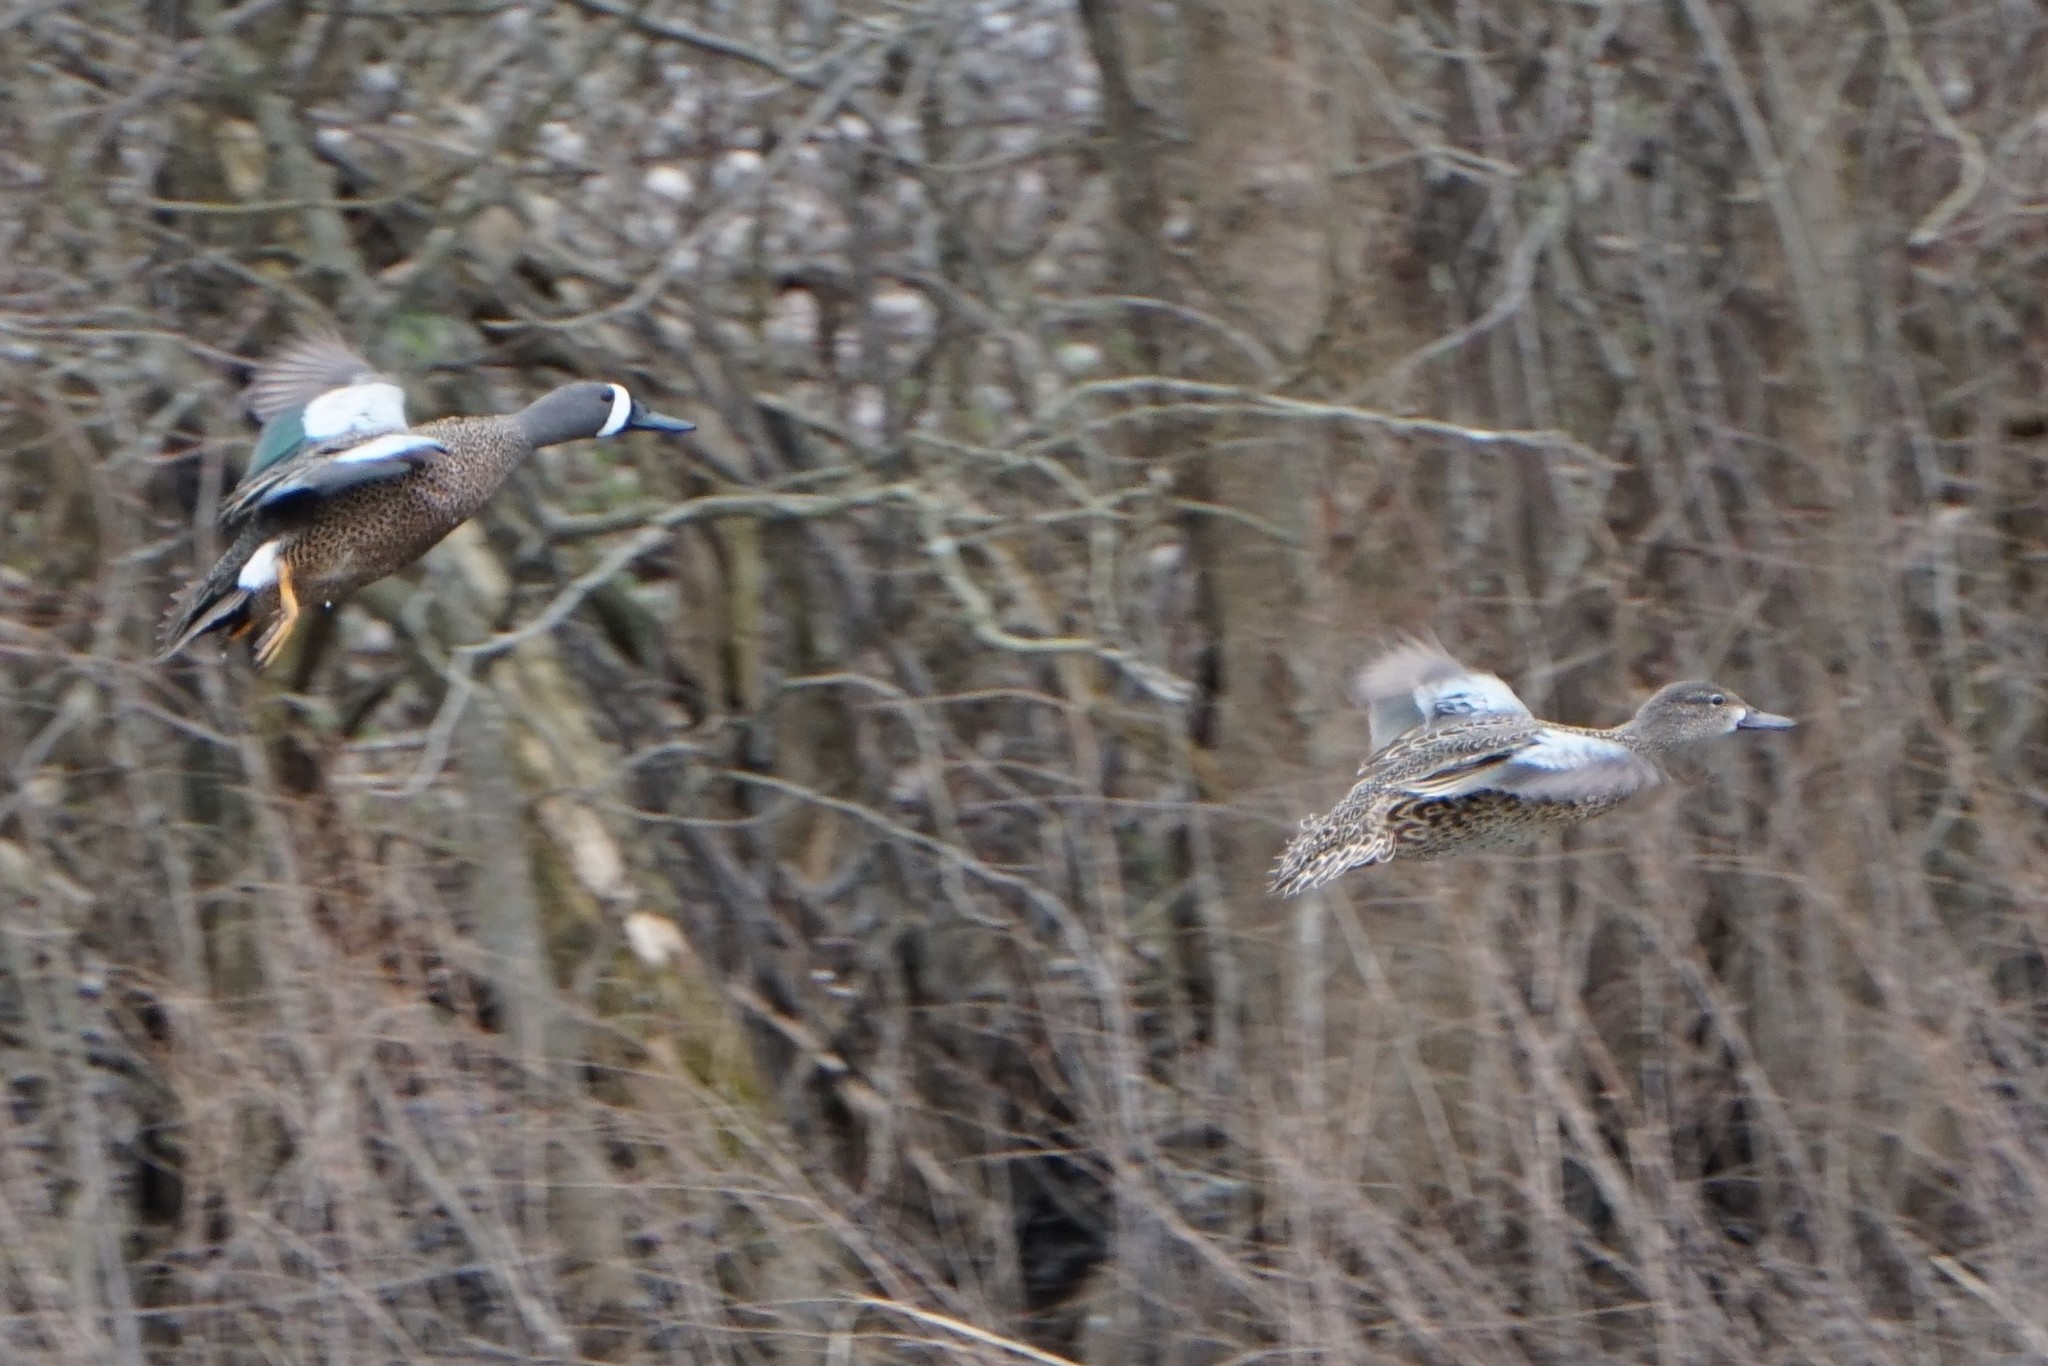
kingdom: Animalia
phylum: Chordata
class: Aves
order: Anseriformes
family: Anatidae
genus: Spatula
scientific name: Spatula discors
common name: Blue-winged teal
